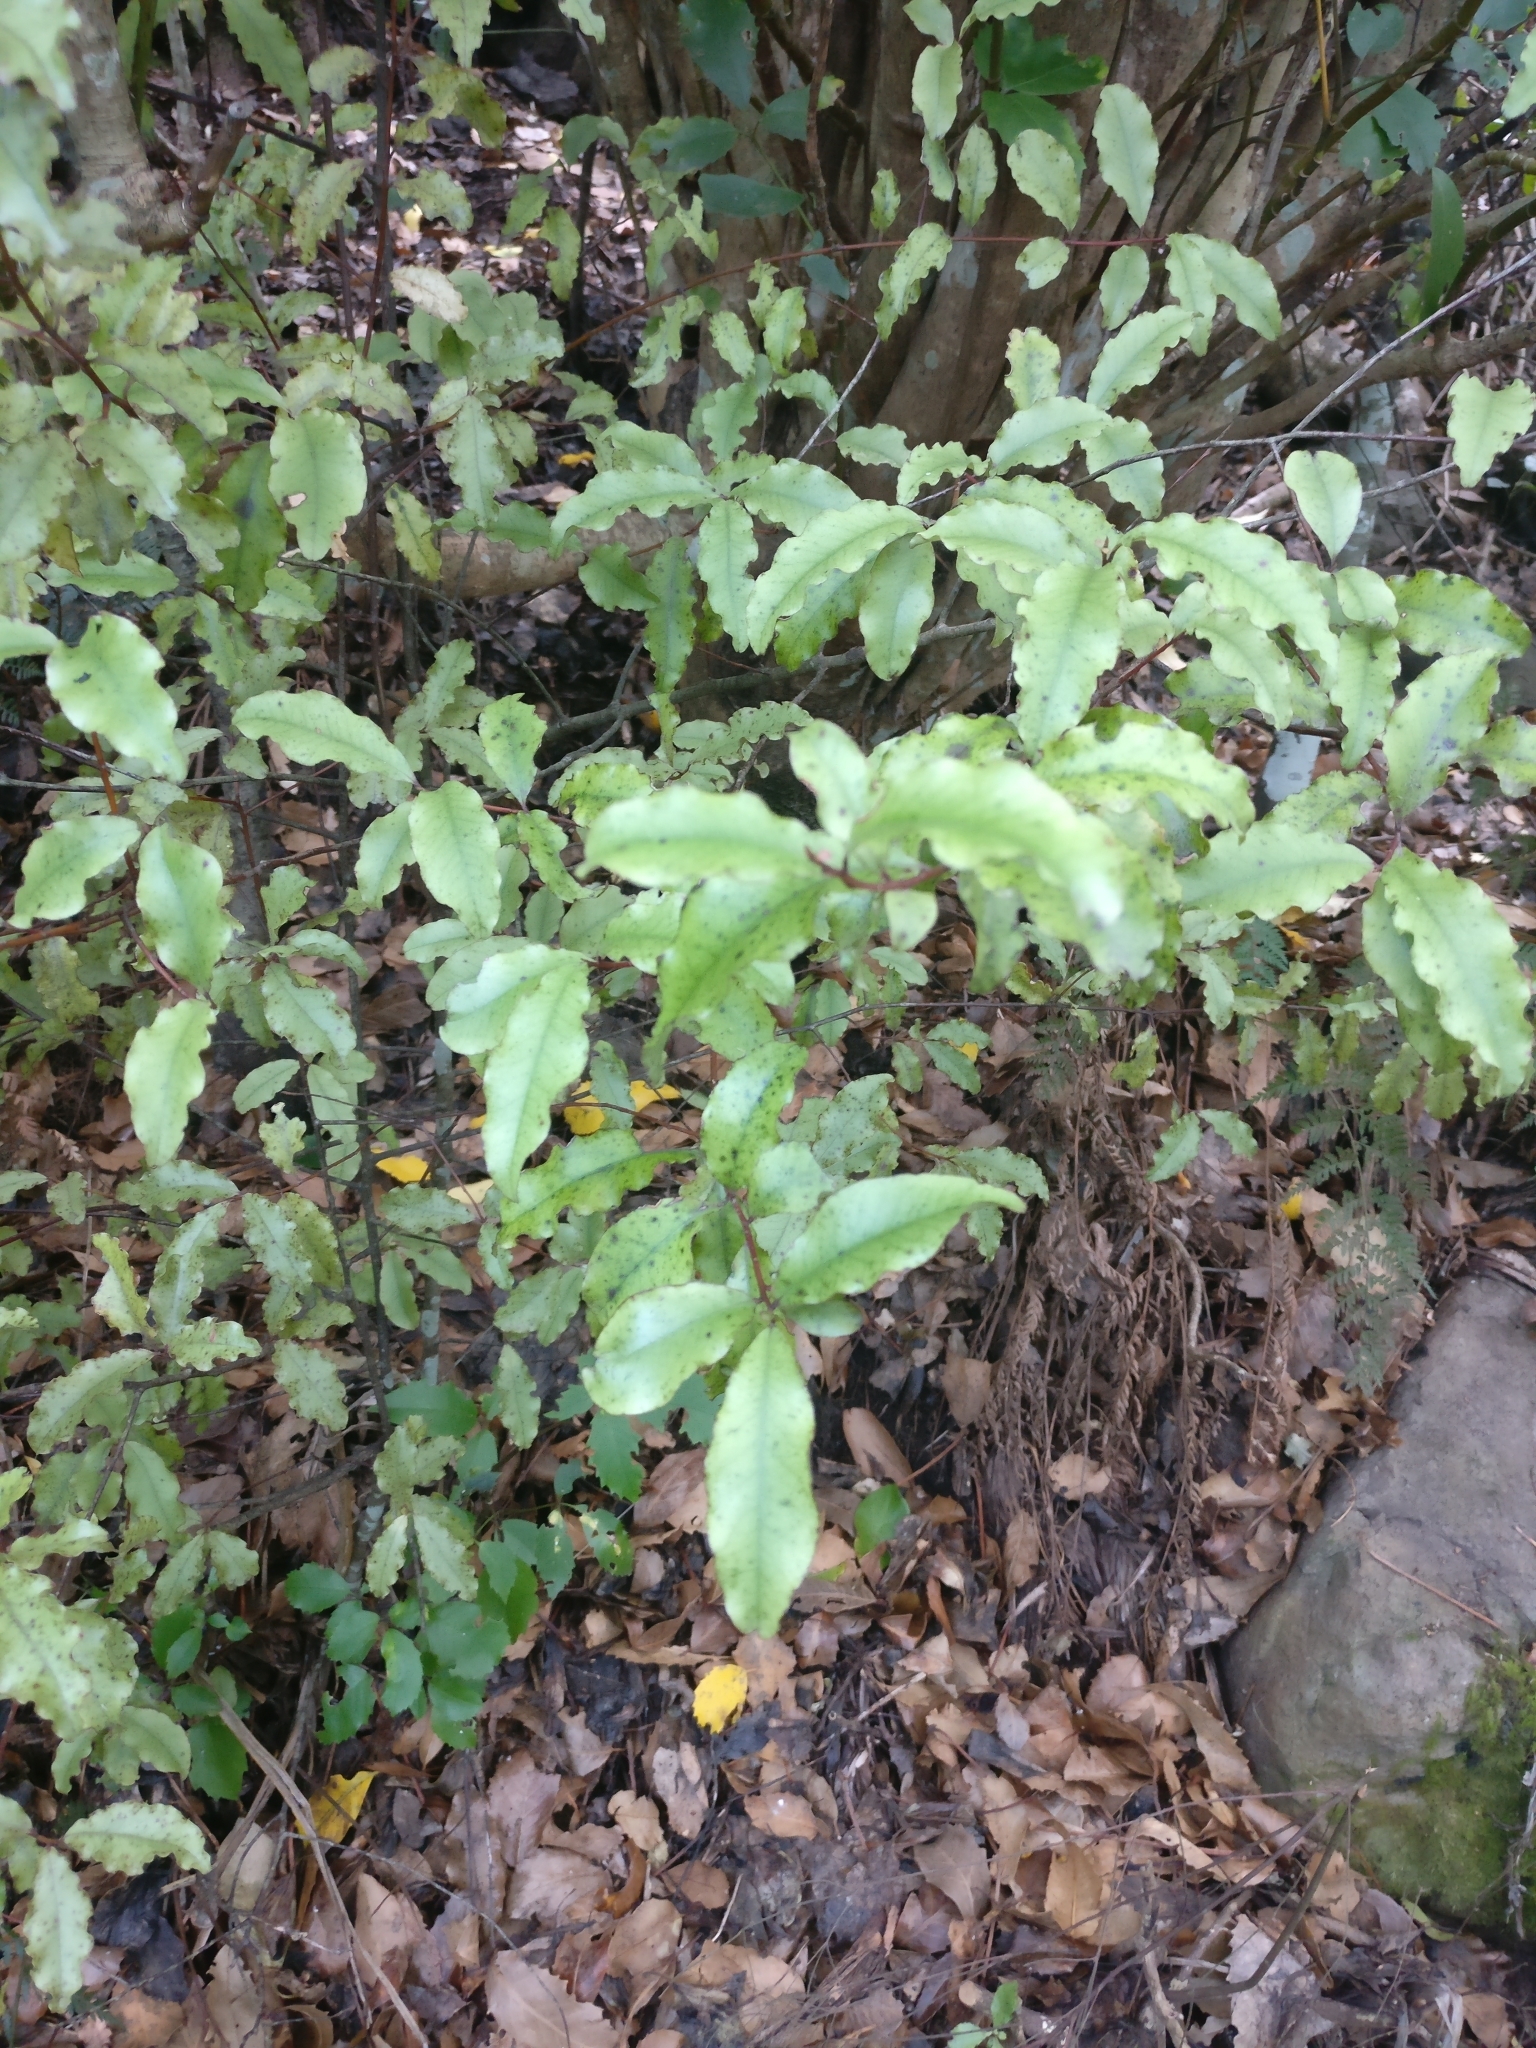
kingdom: Plantae
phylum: Tracheophyta
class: Magnoliopsida
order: Ericales
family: Primulaceae
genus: Myrsine
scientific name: Myrsine australis
